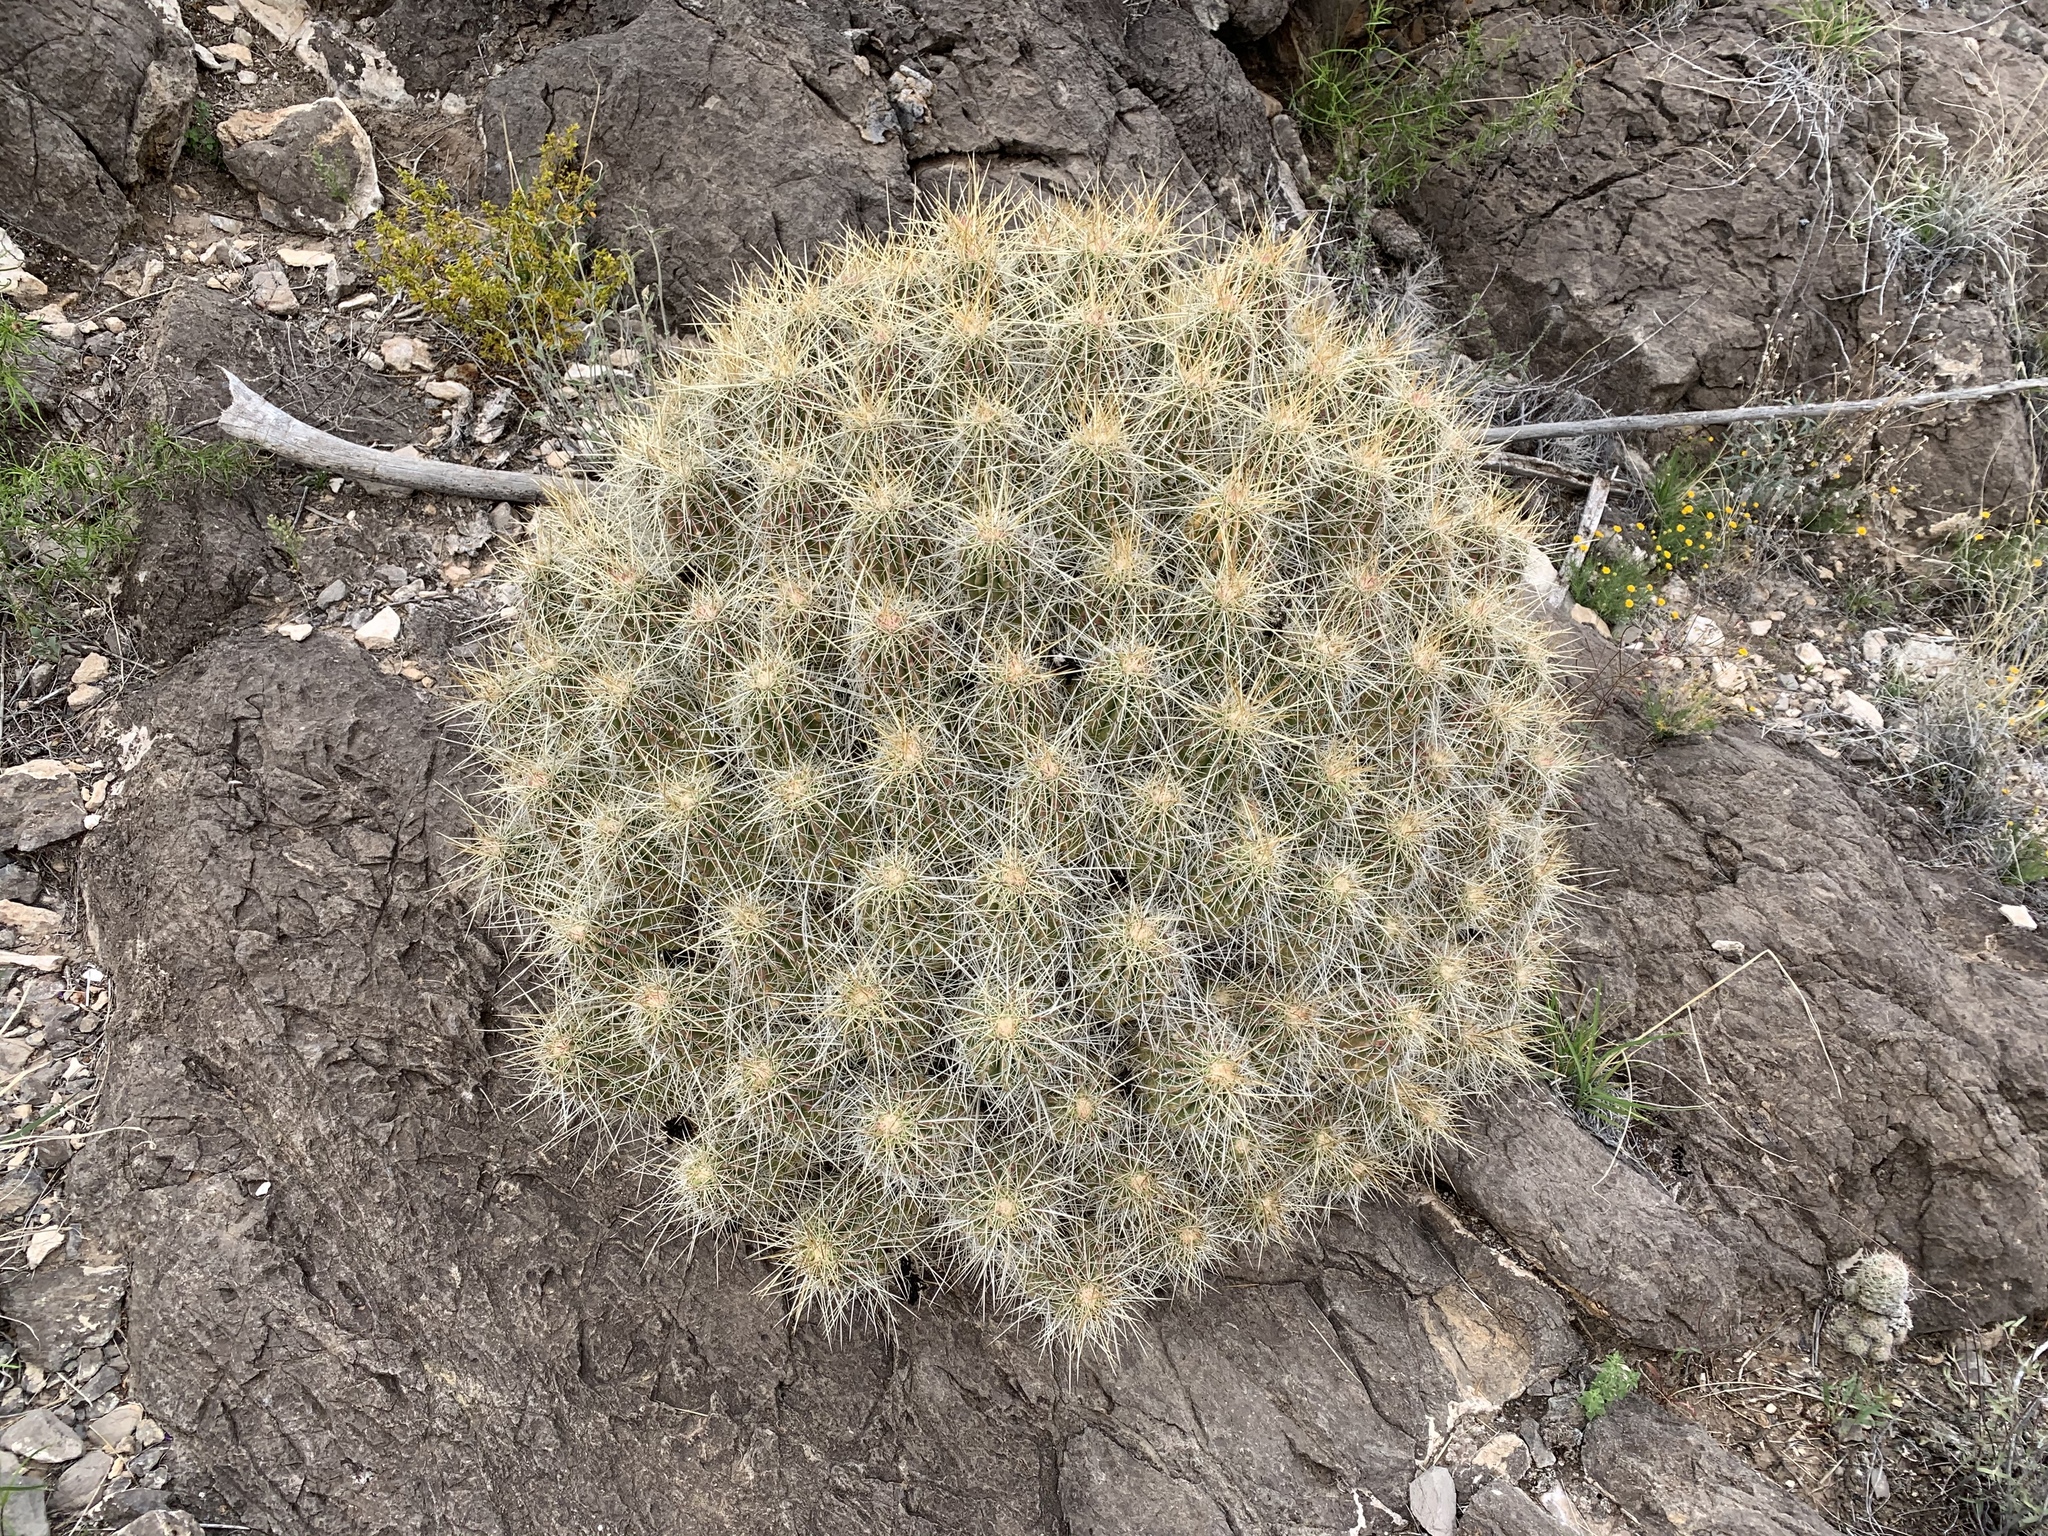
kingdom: Plantae
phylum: Tracheophyta
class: Magnoliopsida
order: Caryophyllales
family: Cactaceae
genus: Echinocereus
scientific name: Echinocereus stramineus
